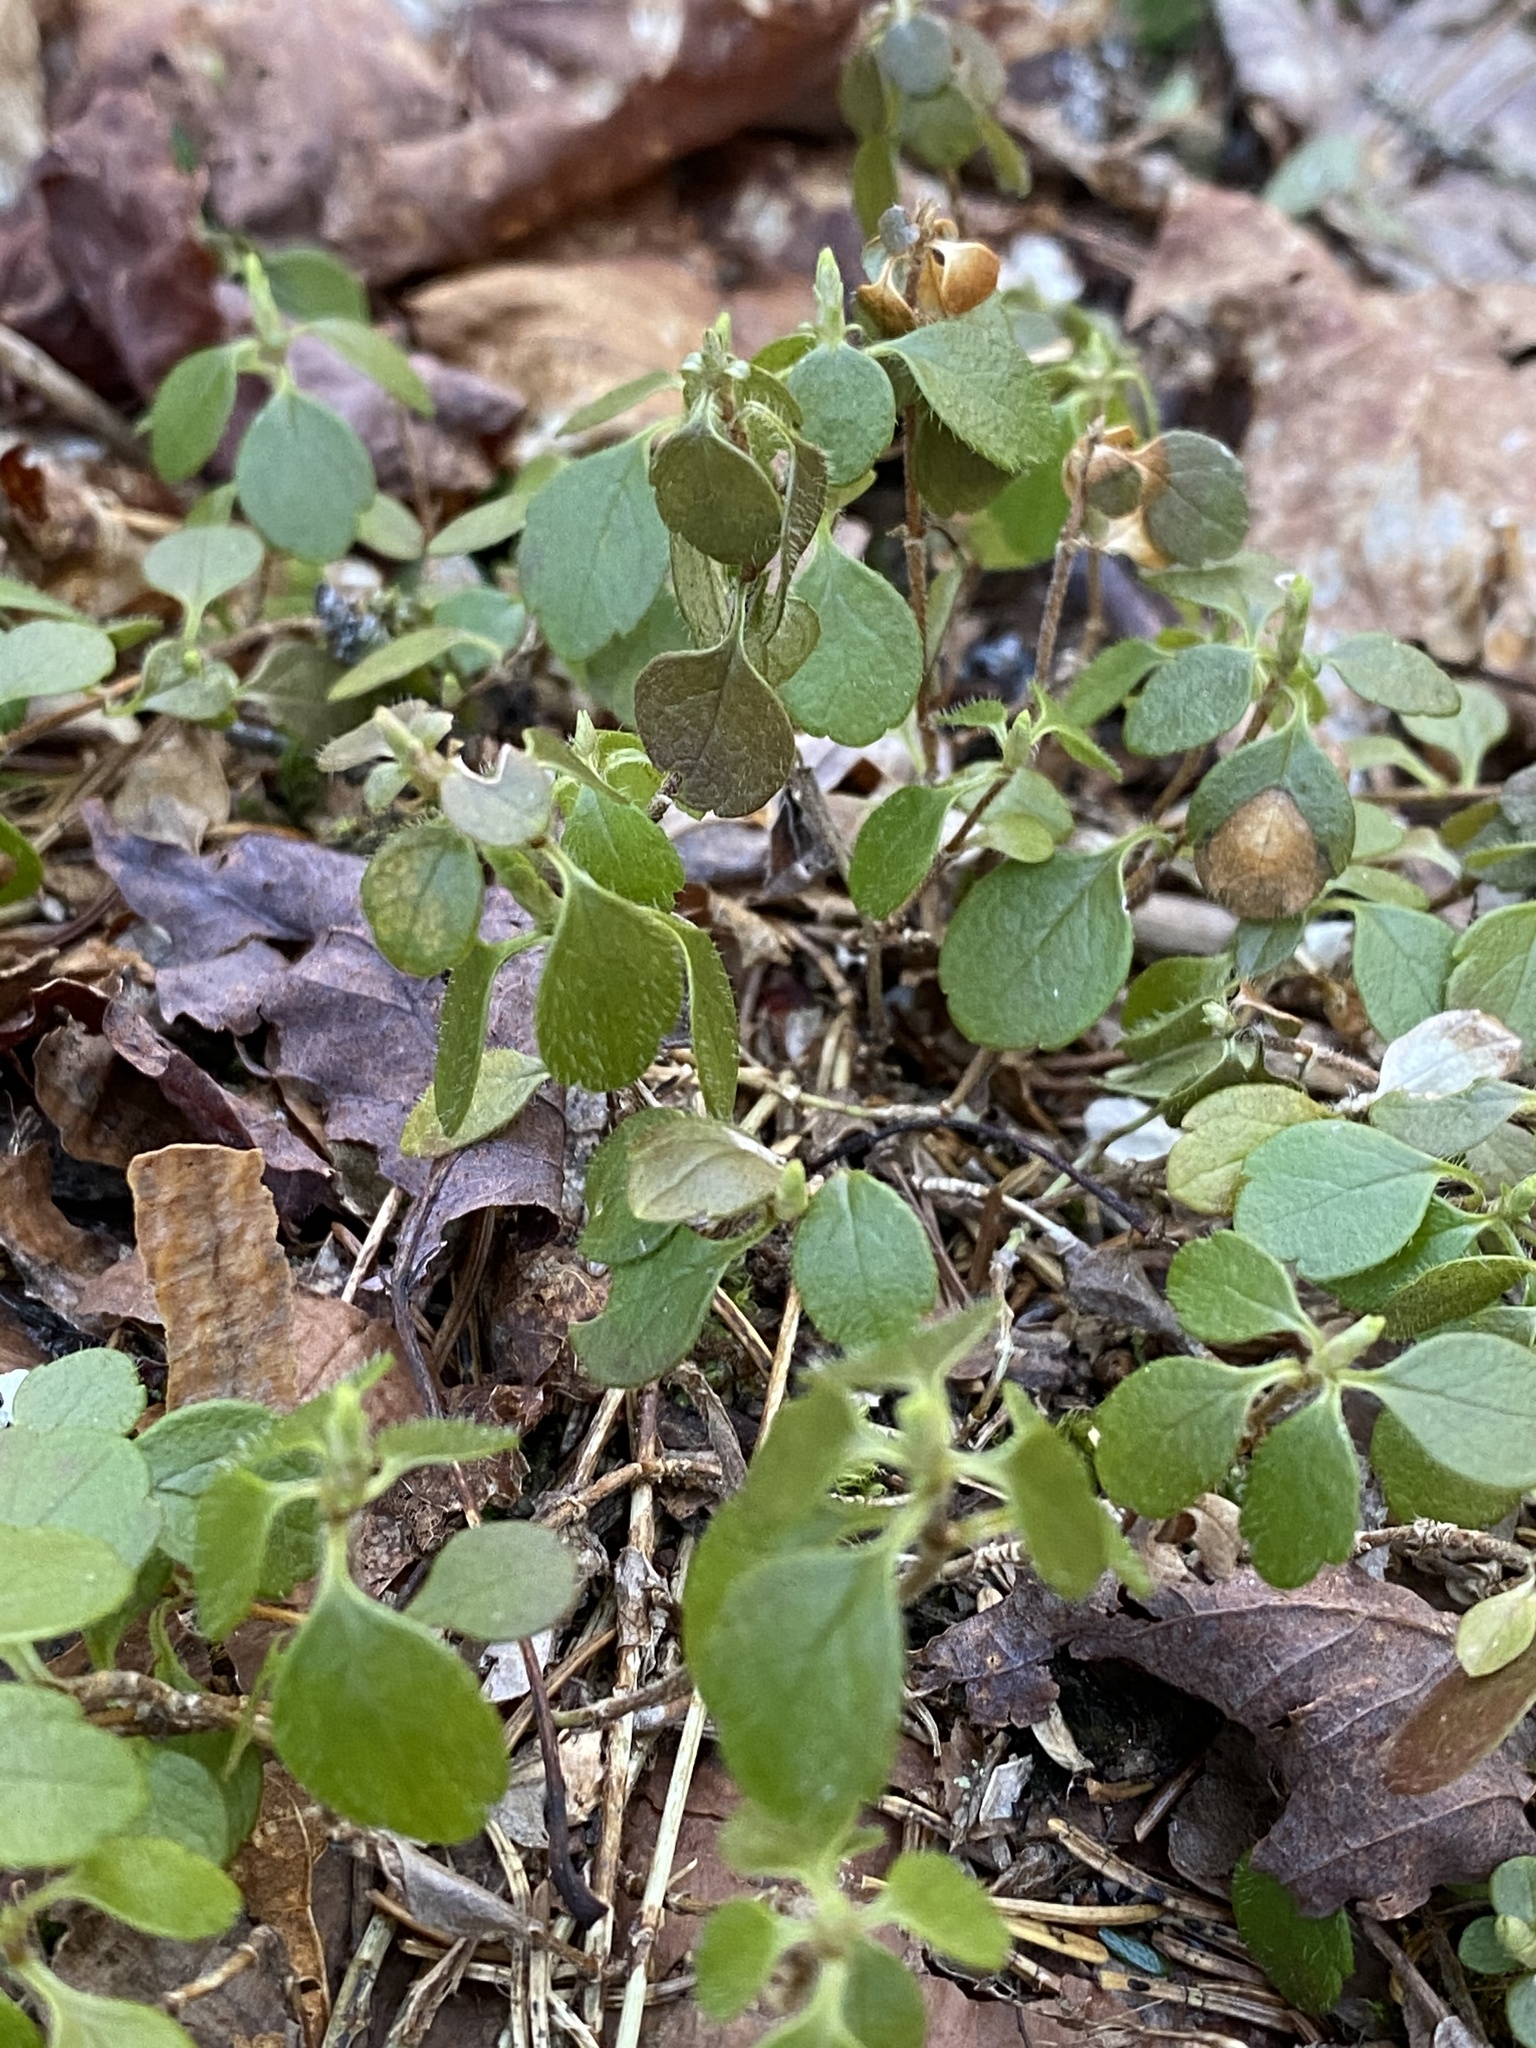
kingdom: Plantae
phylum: Tracheophyta
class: Magnoliopsida
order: Dipsacales
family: Caprifoliaceae
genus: Linnaea
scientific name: Linnaea borealis
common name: Twinflower
